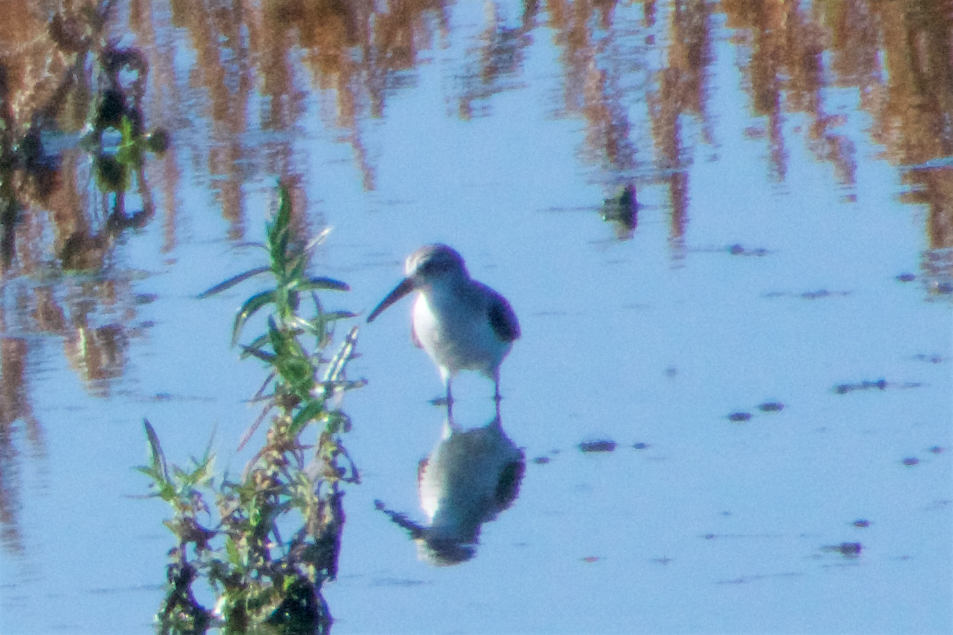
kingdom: Animalia
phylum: Chordata
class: Aves
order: Charadriiformes
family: Scolopacidae
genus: Calidris
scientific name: Calidris mauri
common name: Western sandpiper
